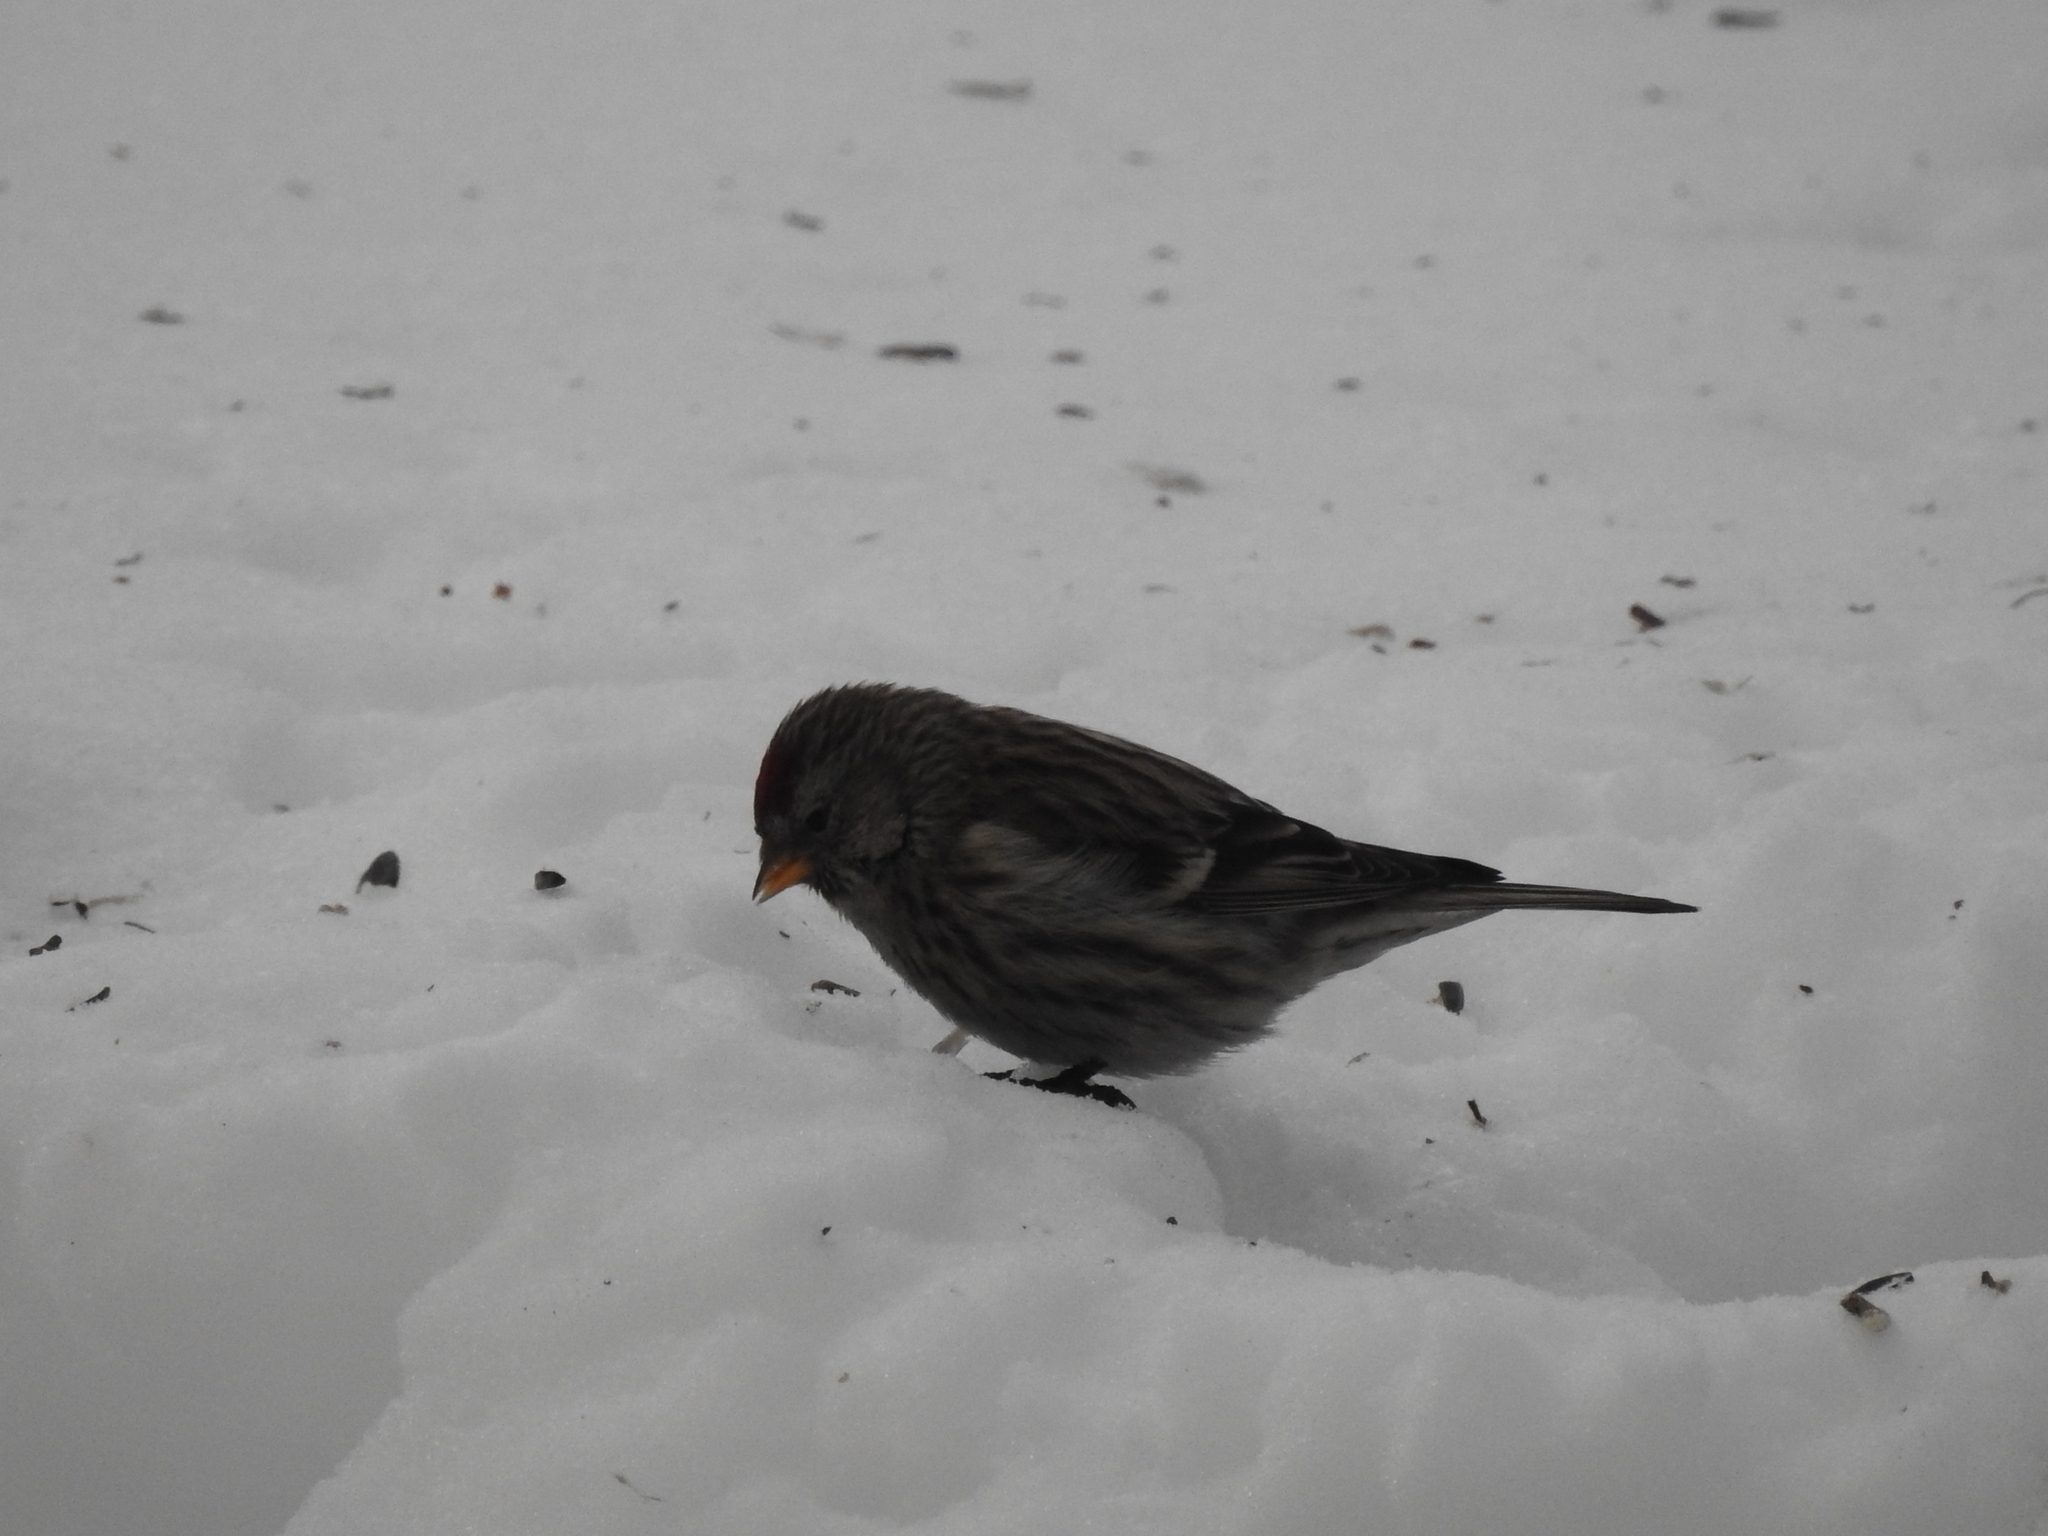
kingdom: Animalia
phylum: Chordata
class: Aves
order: Passeriformes
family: Fringillidae
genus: Acanthis
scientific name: Acanthis flammea
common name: Common redpoll
